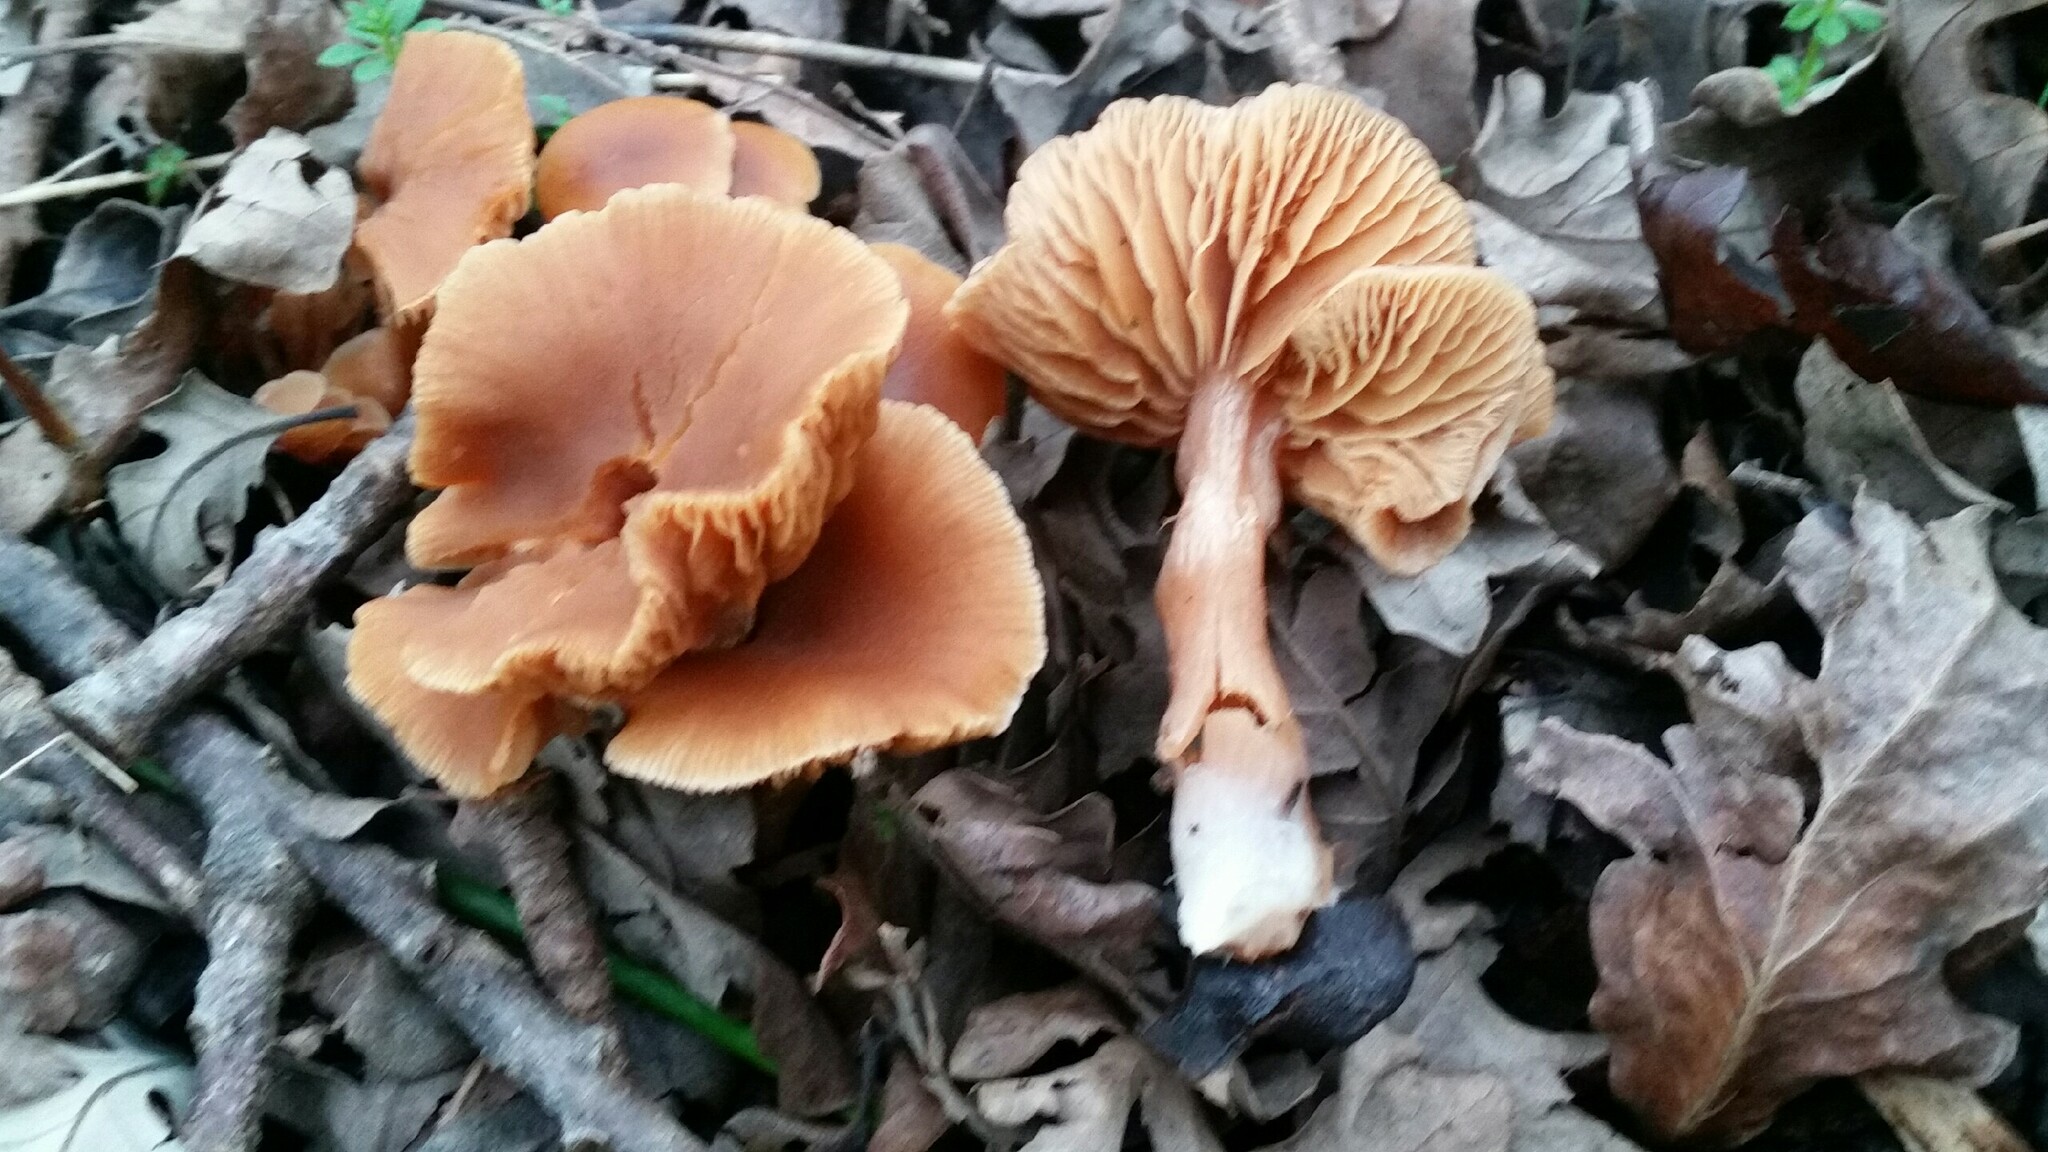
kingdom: Fungi
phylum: Basidiomycota
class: Agaricomycetes
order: Agaricales
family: Tubariaceae
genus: Tubaria
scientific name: Tubaria furfuracea
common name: Scurfy twiglet
